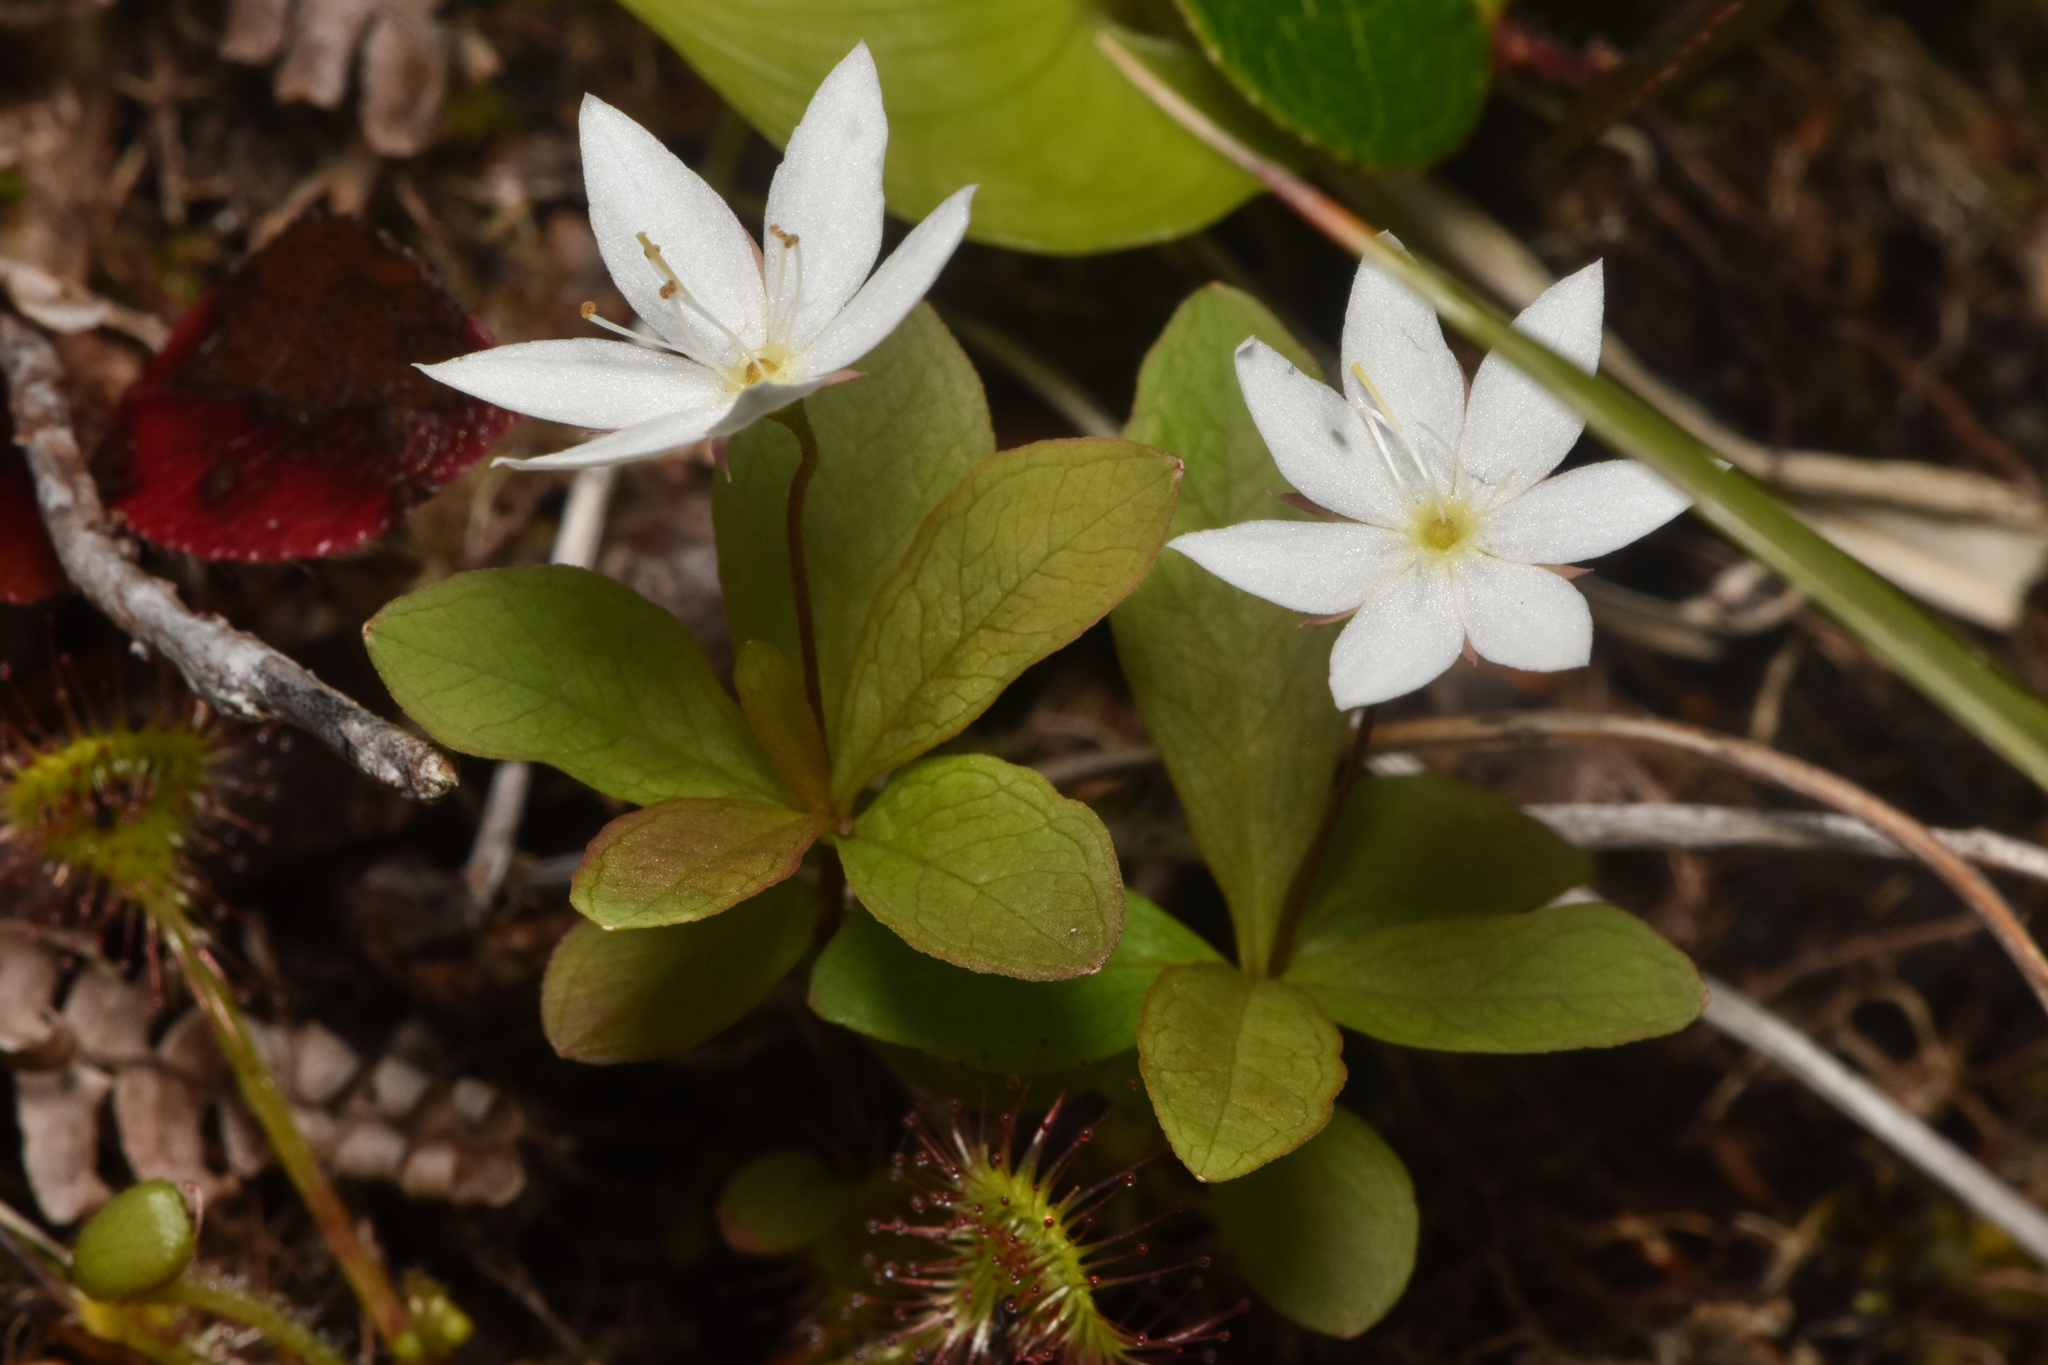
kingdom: Plantae
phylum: Tracheophyta
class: Magnoliopsida
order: Ericales
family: Primulaceae
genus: Lysimachia
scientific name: Lysimachia europaea
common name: Arctic starflower
